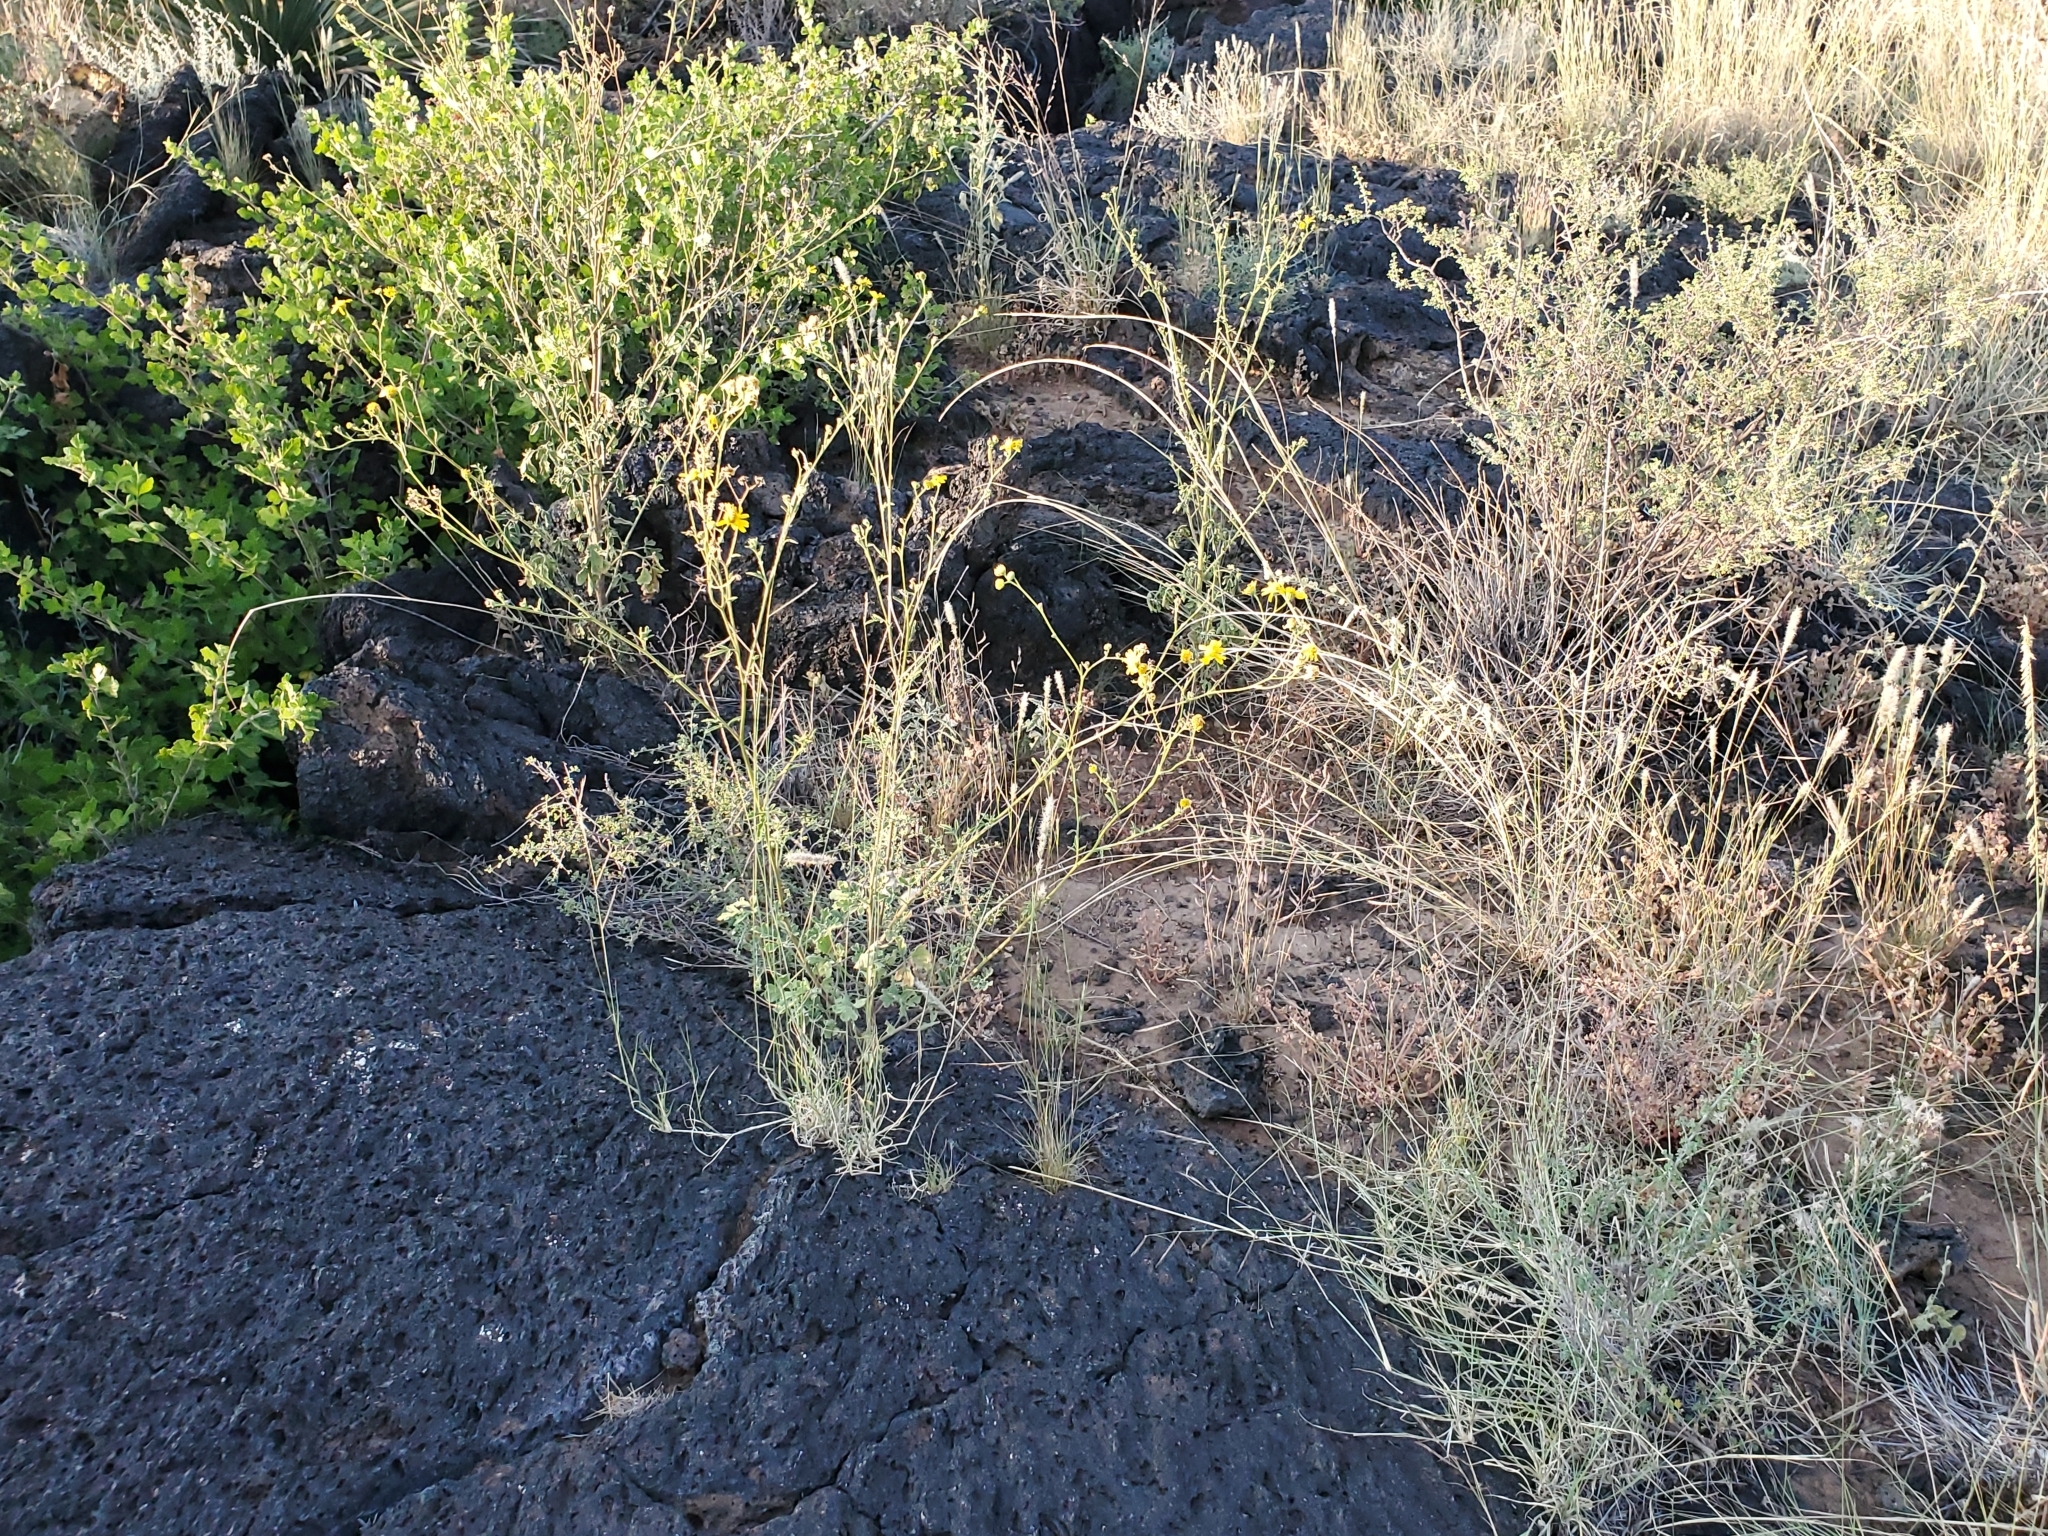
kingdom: Plantae
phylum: Tracheophyta
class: Magnoliopsida
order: Asterales
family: Asteraceae
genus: Hymenothrix
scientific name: Hymenothrix pedata
